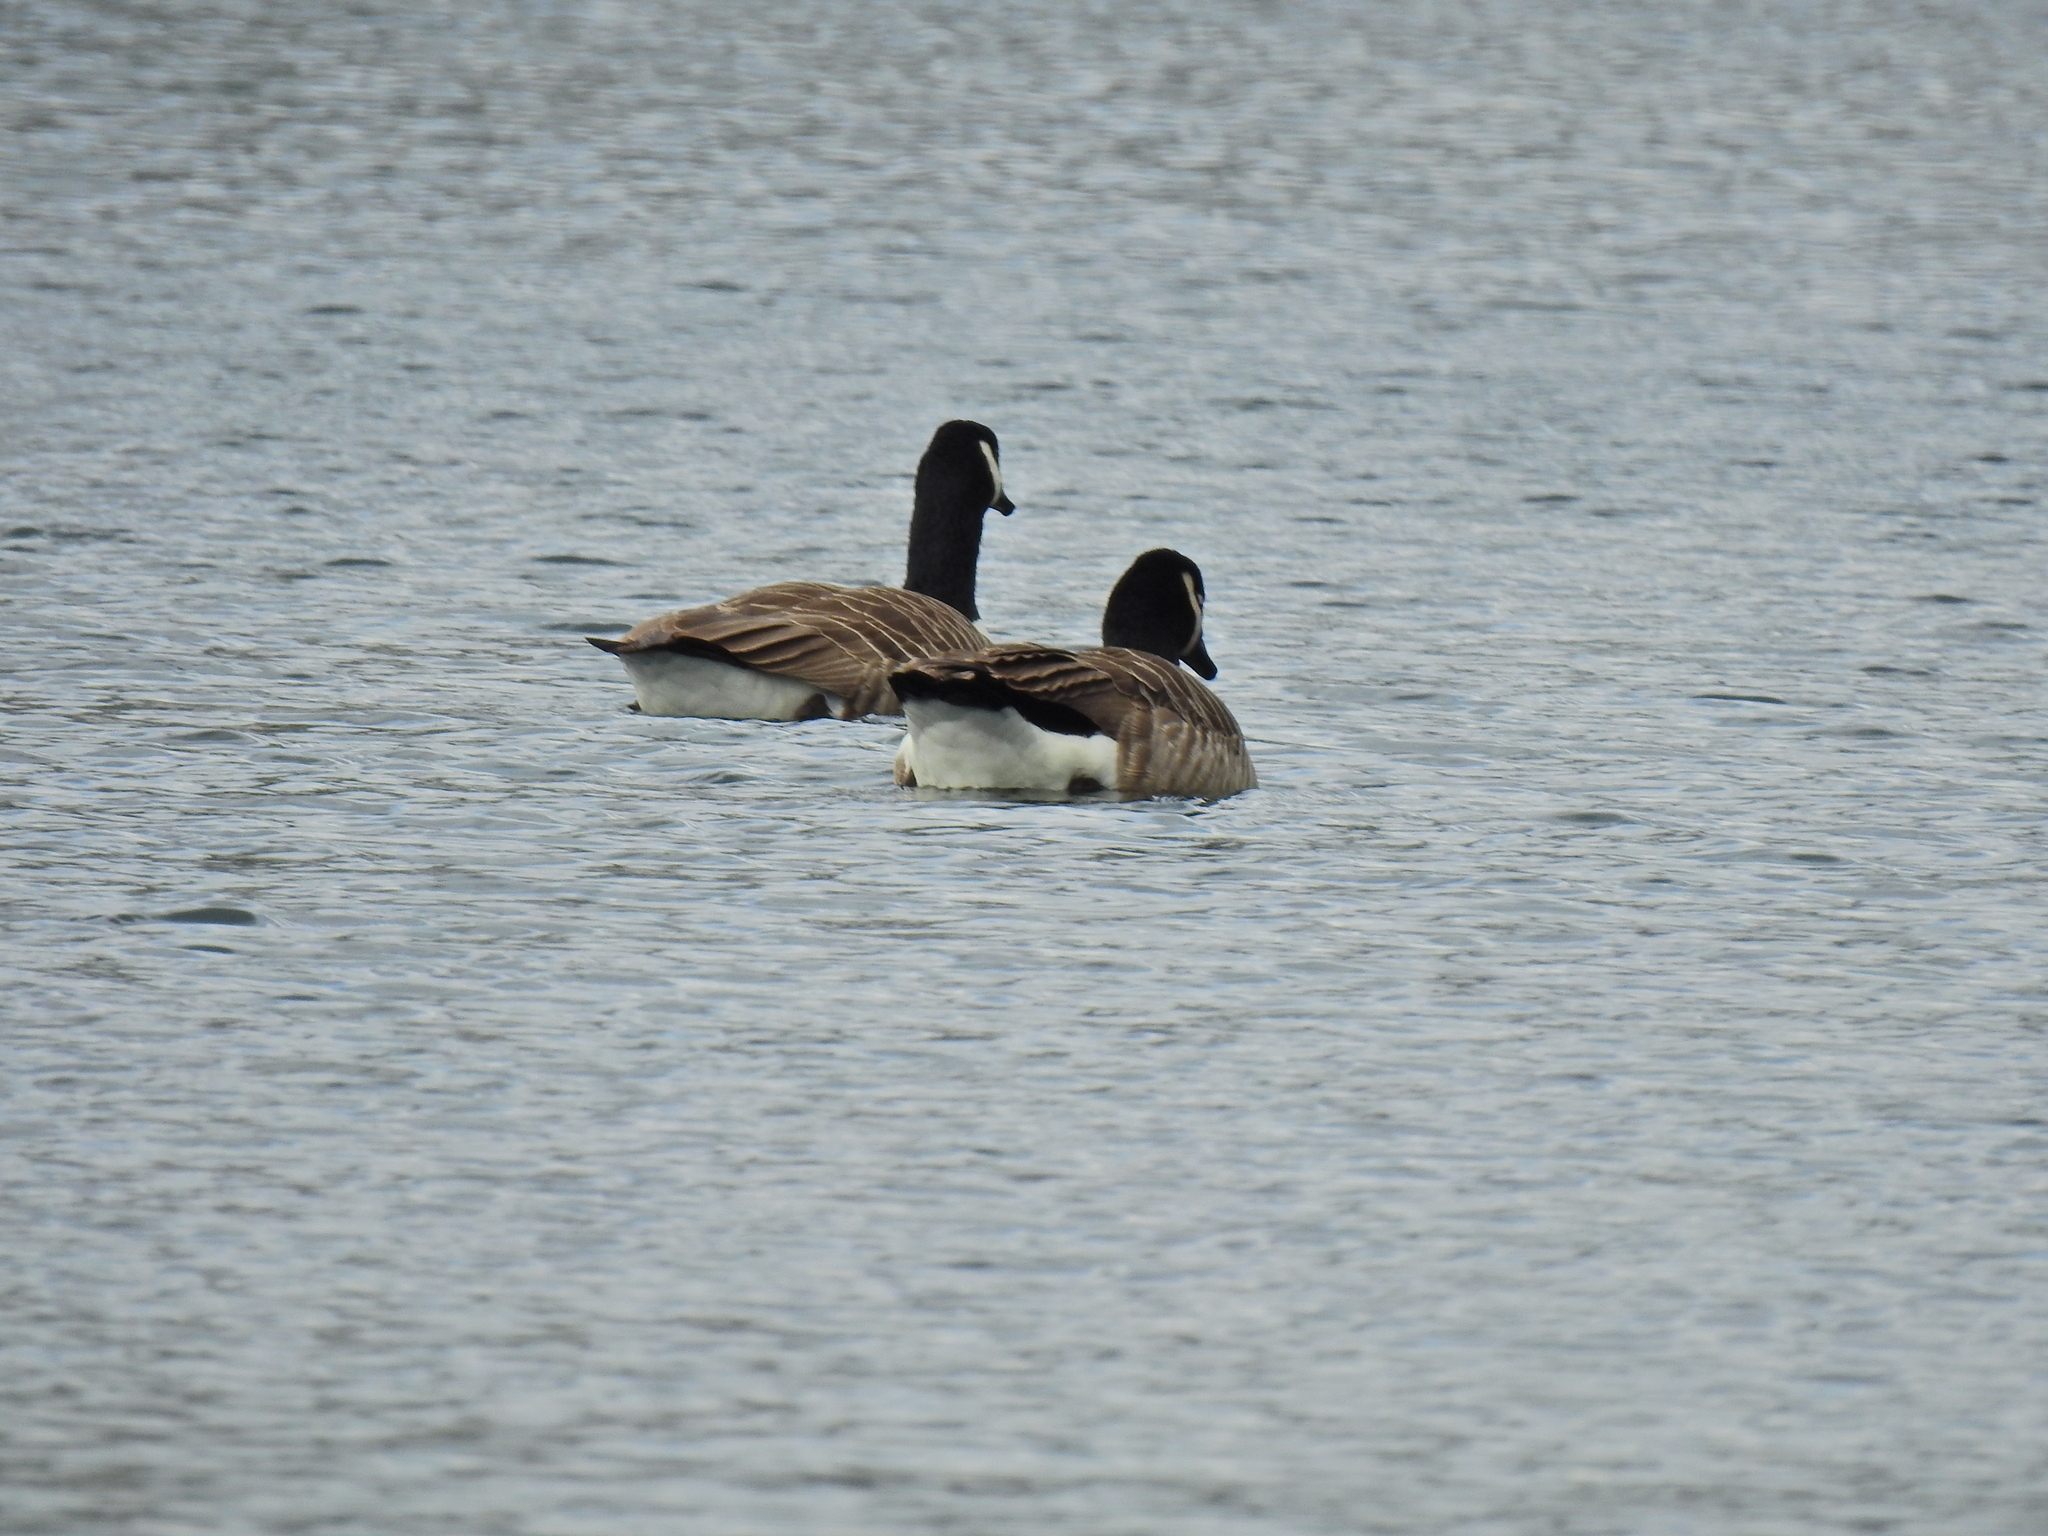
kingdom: Animalia
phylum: Chordata
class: Aves
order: Anseriformes
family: Anatidae
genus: Branta
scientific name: Branta canadensis
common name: Canada goose
